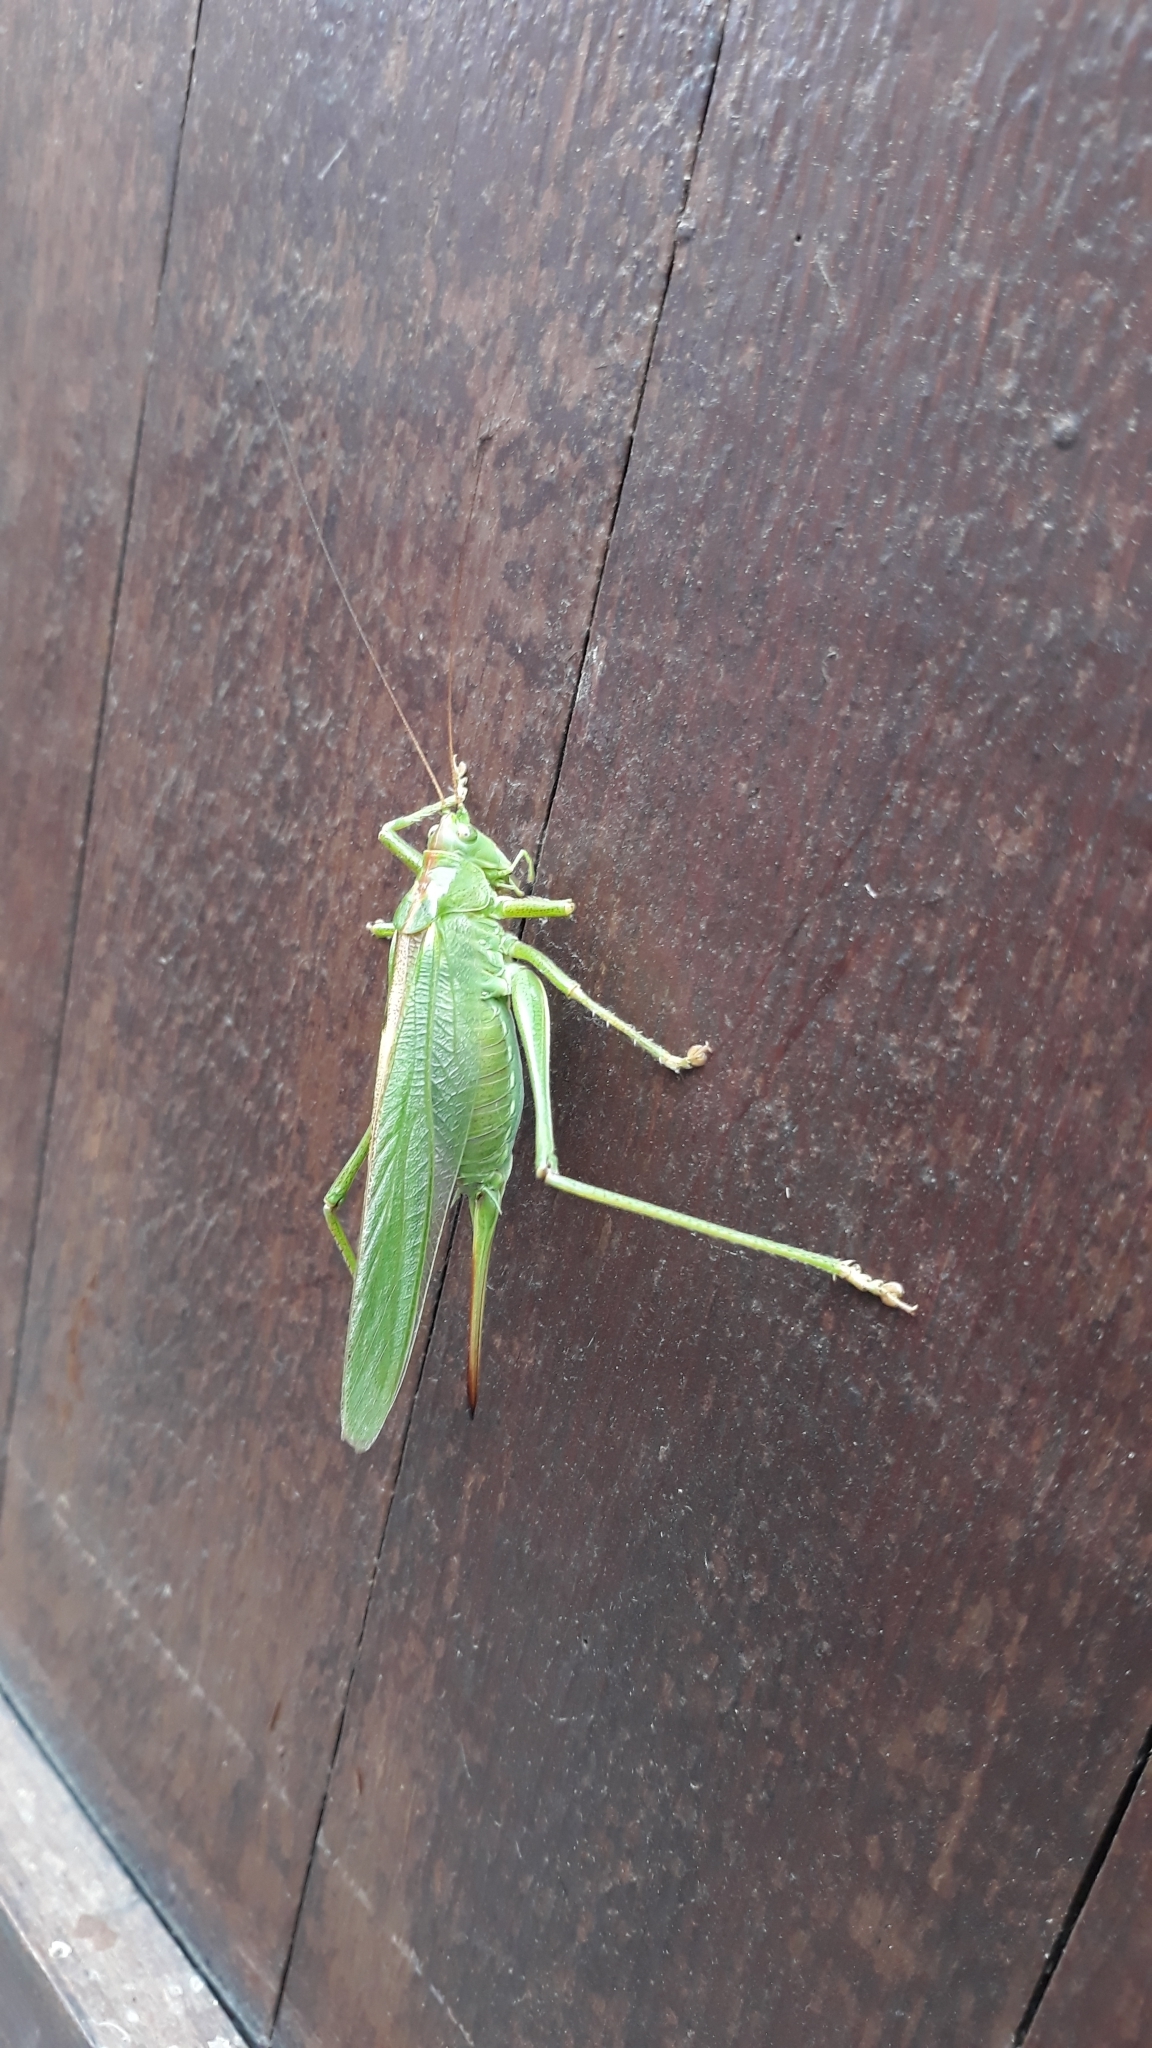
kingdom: Animalia
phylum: Arthropoda
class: Insecta
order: Orthoptera
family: Tettigoniidae
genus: Tettigonia
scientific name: Tettigonia viridissima
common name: Great green bush-cricket
